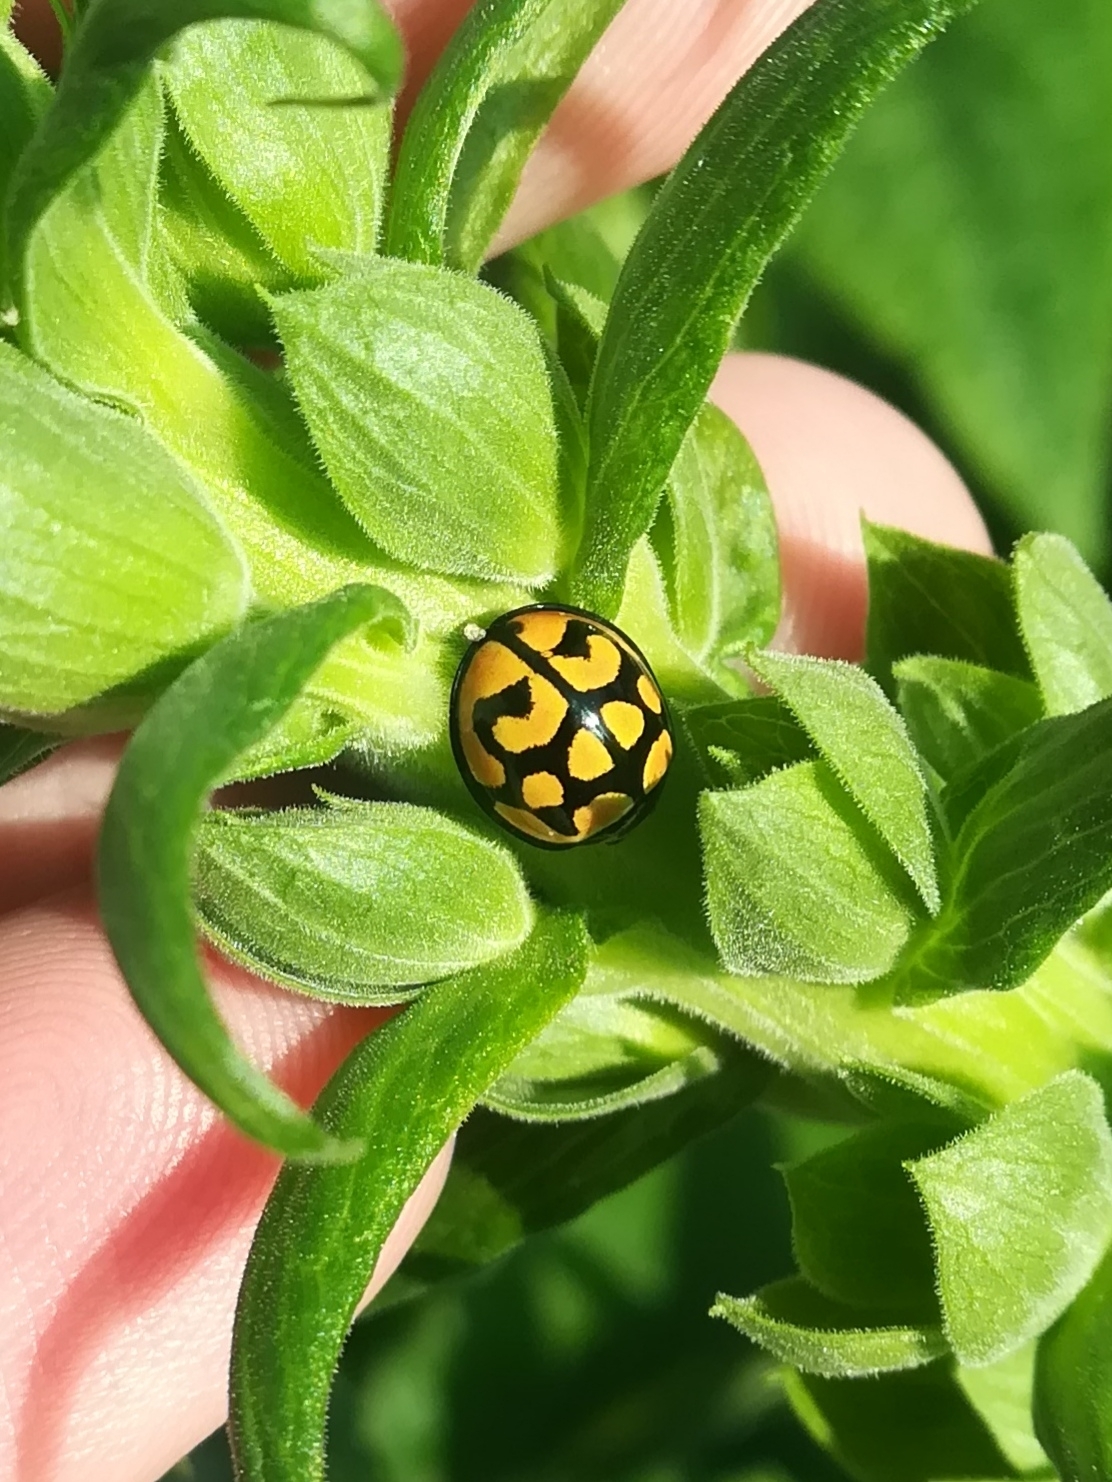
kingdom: Animalia
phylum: Arthropoda
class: Insecta
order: Coleoptera
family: Coccinellidae
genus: Cheilomenes
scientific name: Cheilomenes lunata
